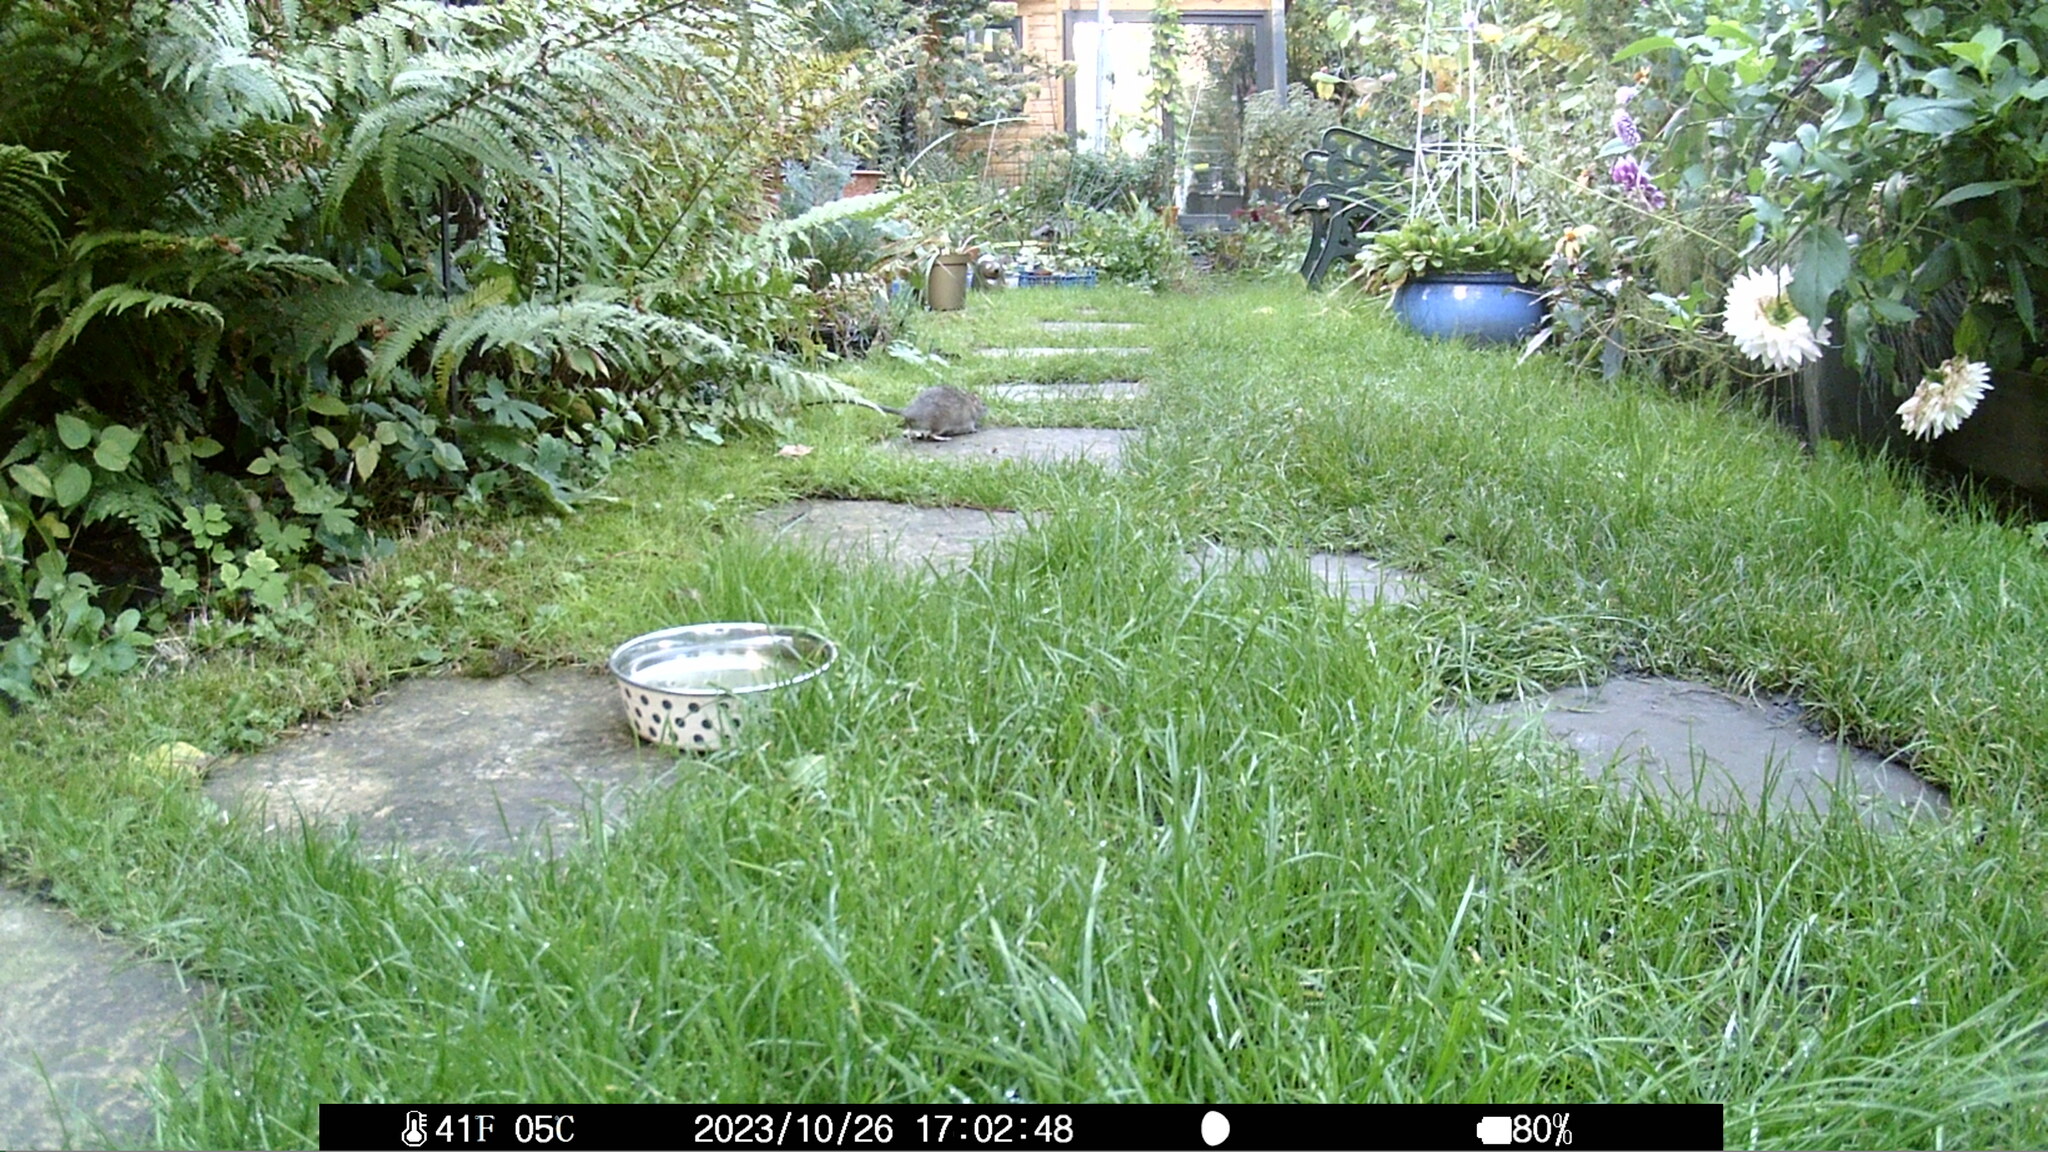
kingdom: Animalia
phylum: Chordata
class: Mammalia
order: Rodentia
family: Muridae
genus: Rattus
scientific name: Rattus norvegicus
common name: Brown rat
